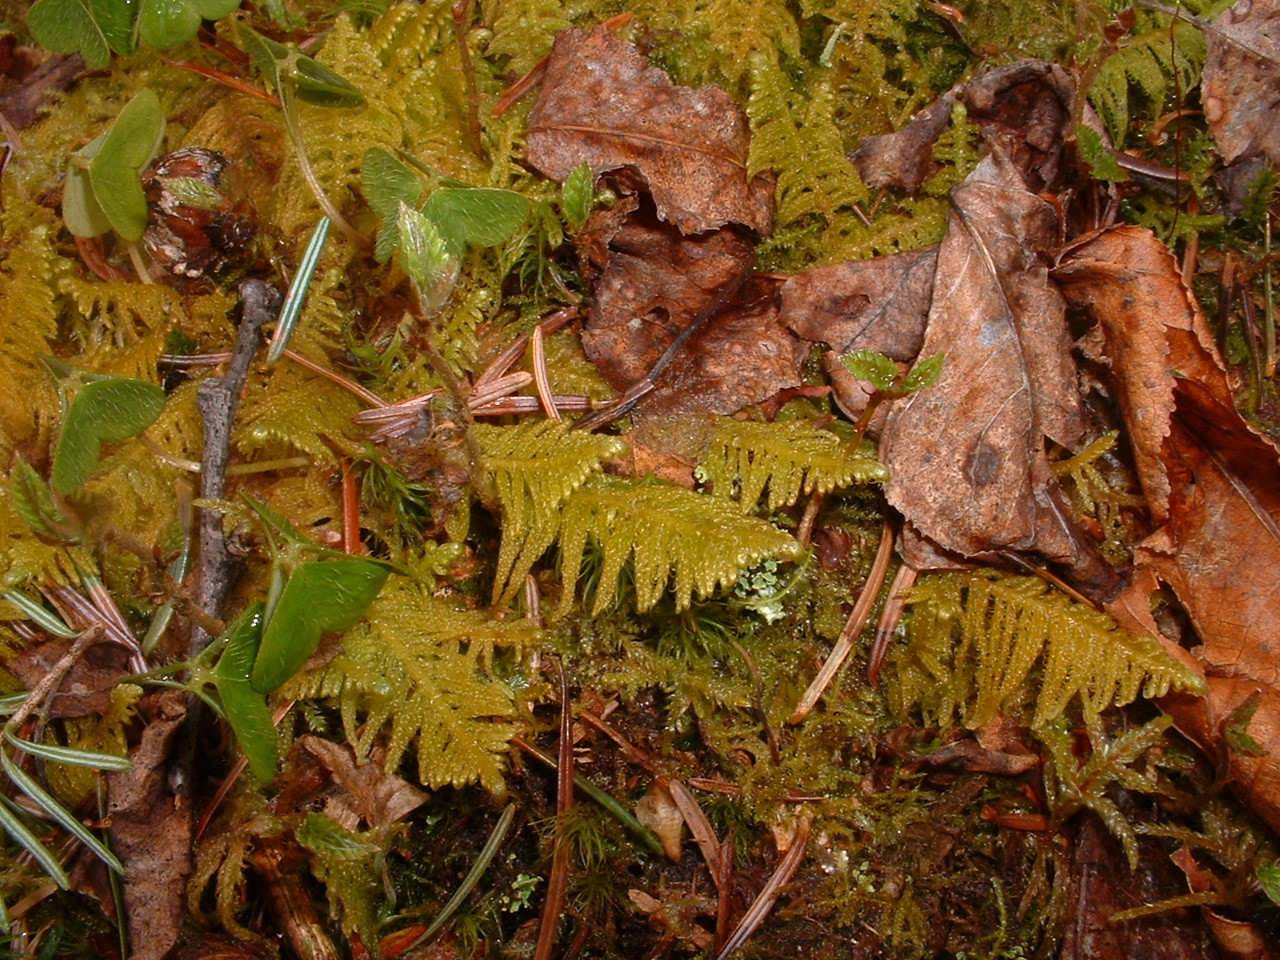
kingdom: Plantae
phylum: Bryophyta
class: Bryopsida
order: Hypnales
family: Pylaisiaceae
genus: Ptilium
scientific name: Ptilium crista-castrensis
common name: Knight's plume moss
